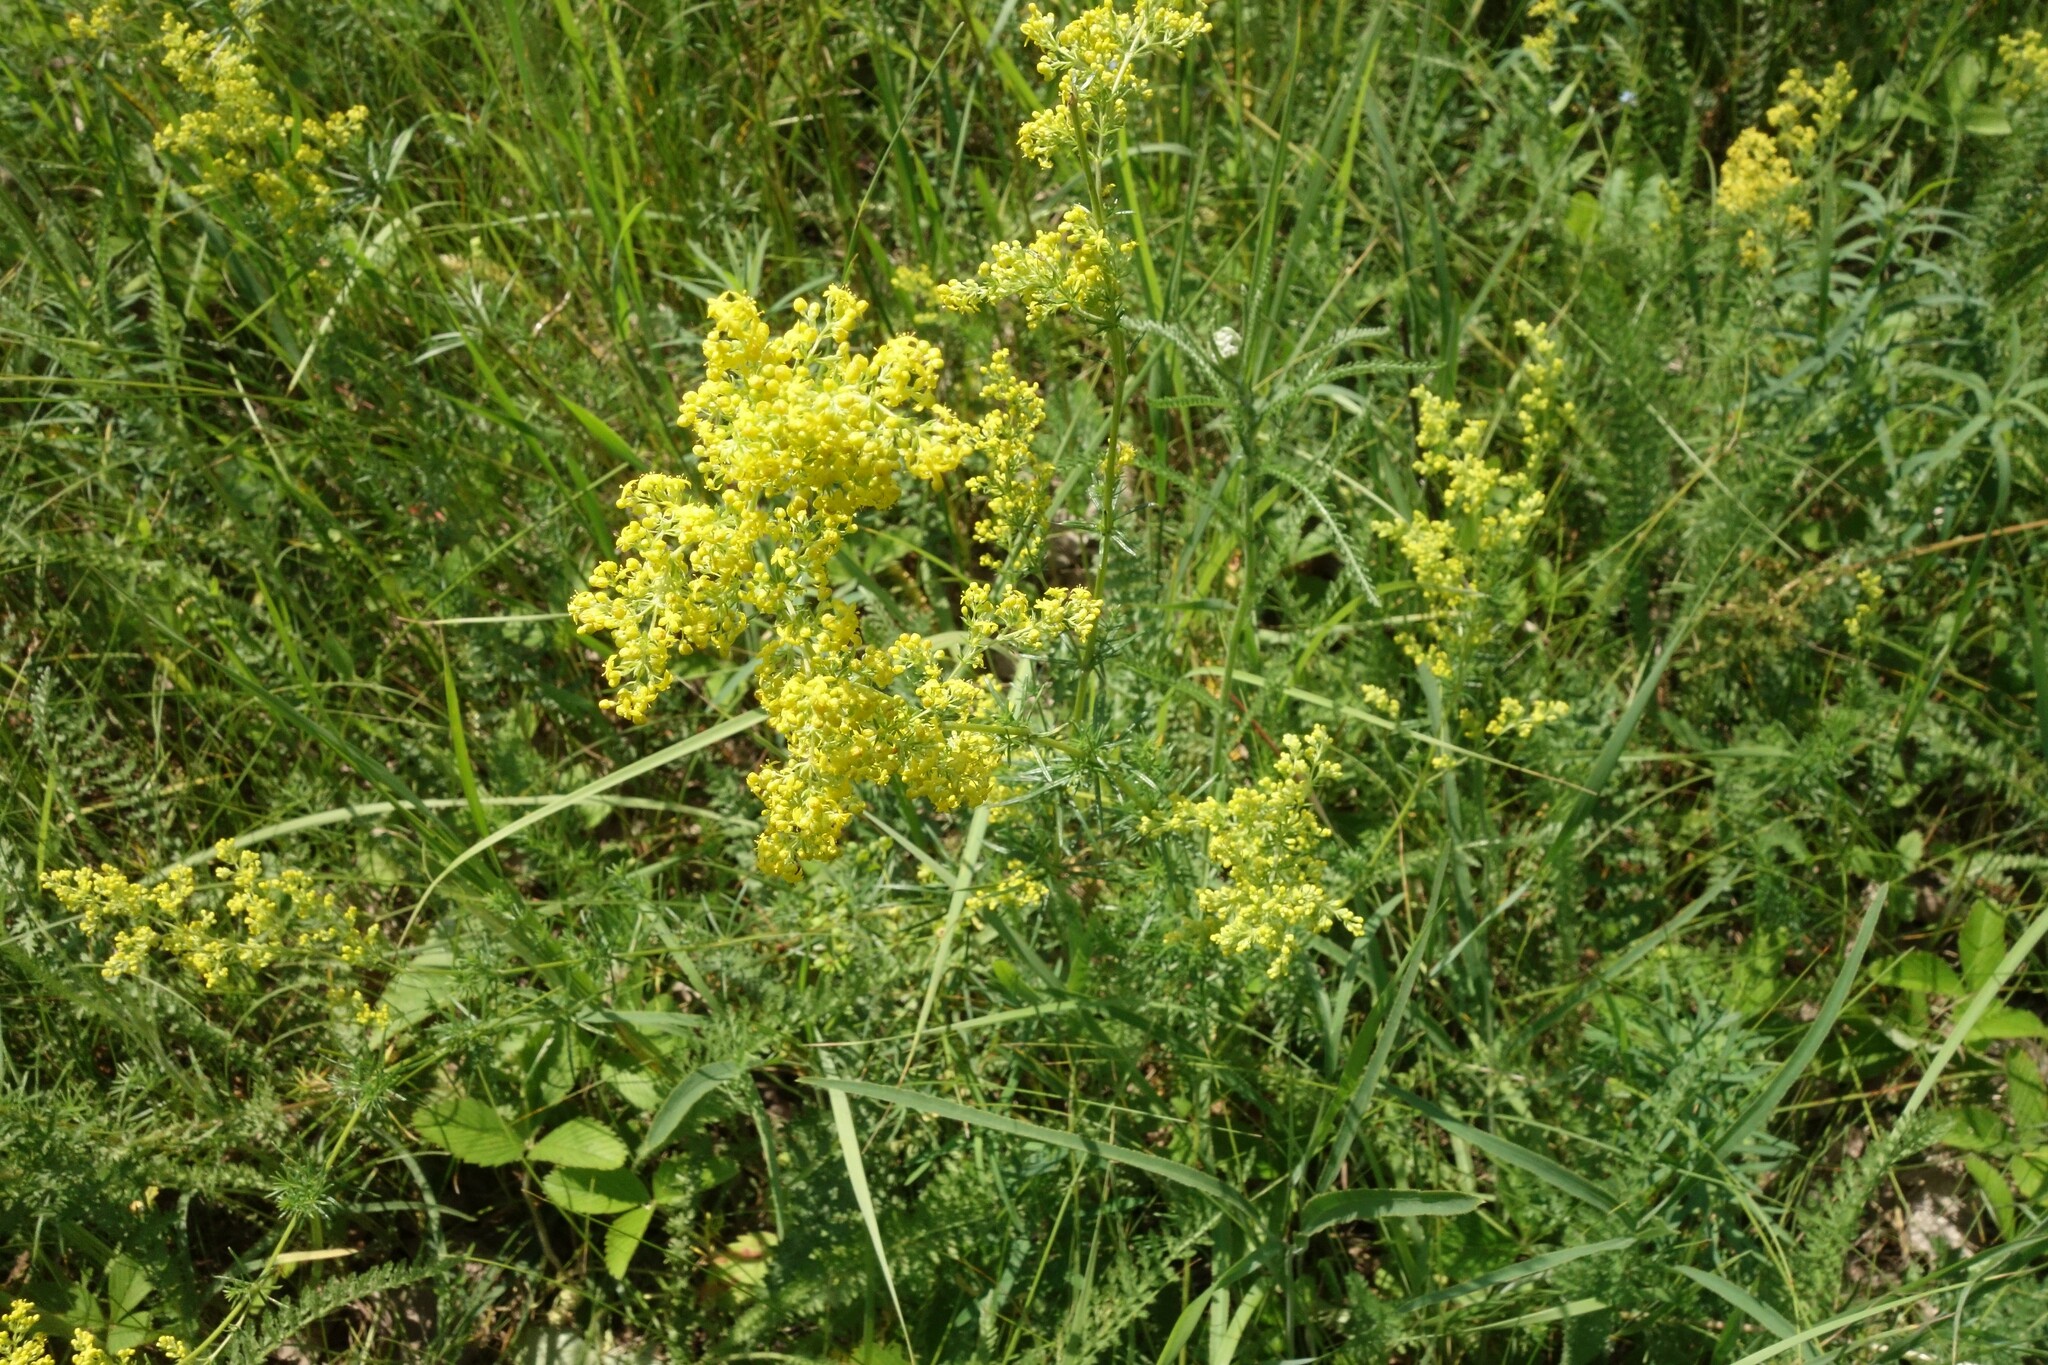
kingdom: Plantae
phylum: Tracheophyta
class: Magnoliopsida
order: Gentianales
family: Rubiaceae
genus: Galium
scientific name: Galium verum
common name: Lady's bedstraw
